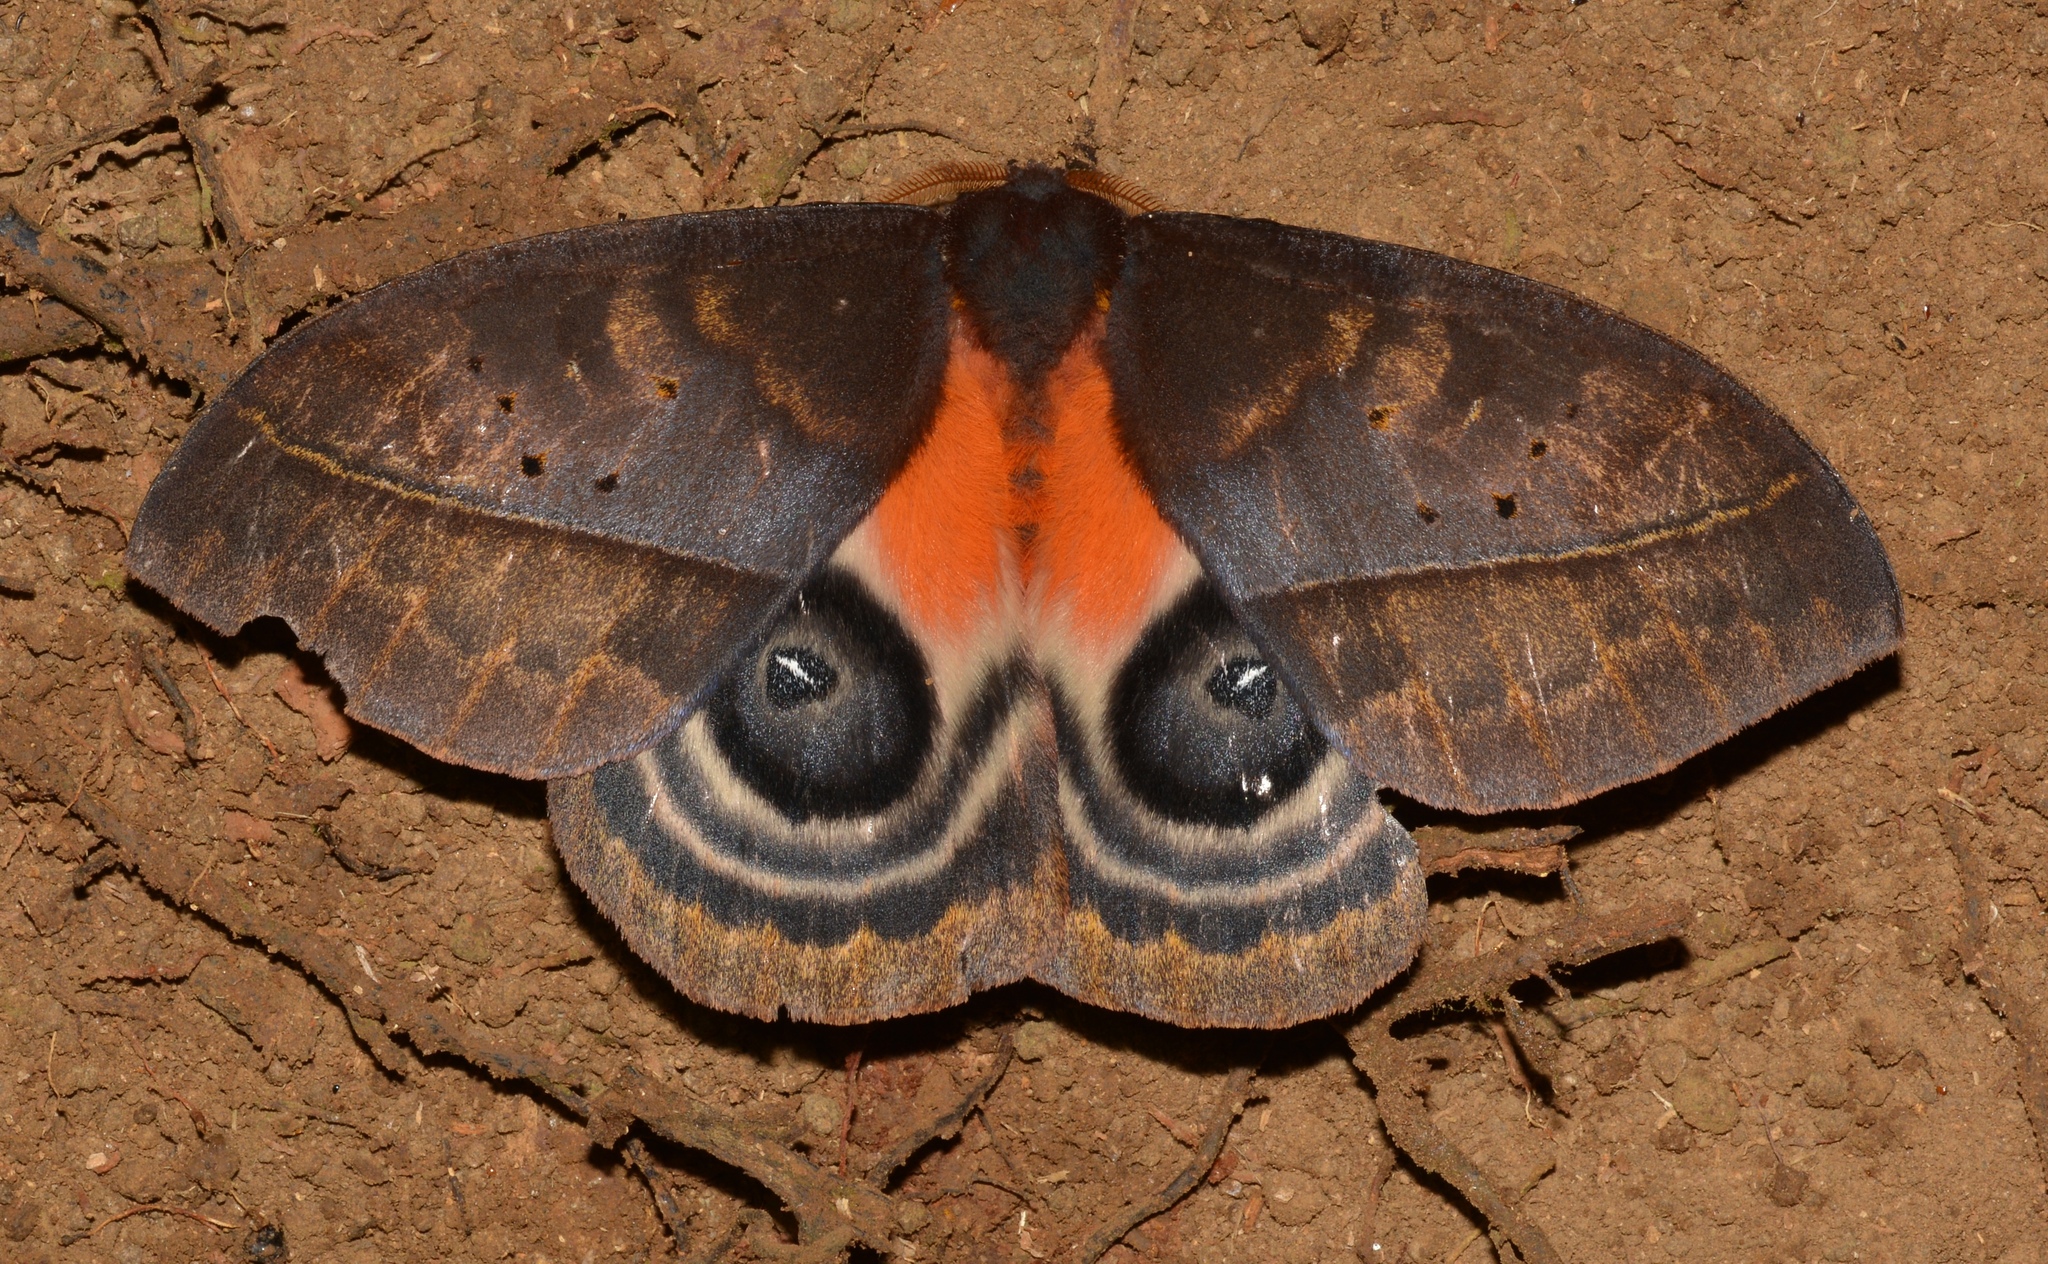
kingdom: Animalia
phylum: Arthropoda
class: Insecta
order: Lepidoptera
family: Saturniidae
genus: Automeris
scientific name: Automeris postalbida
